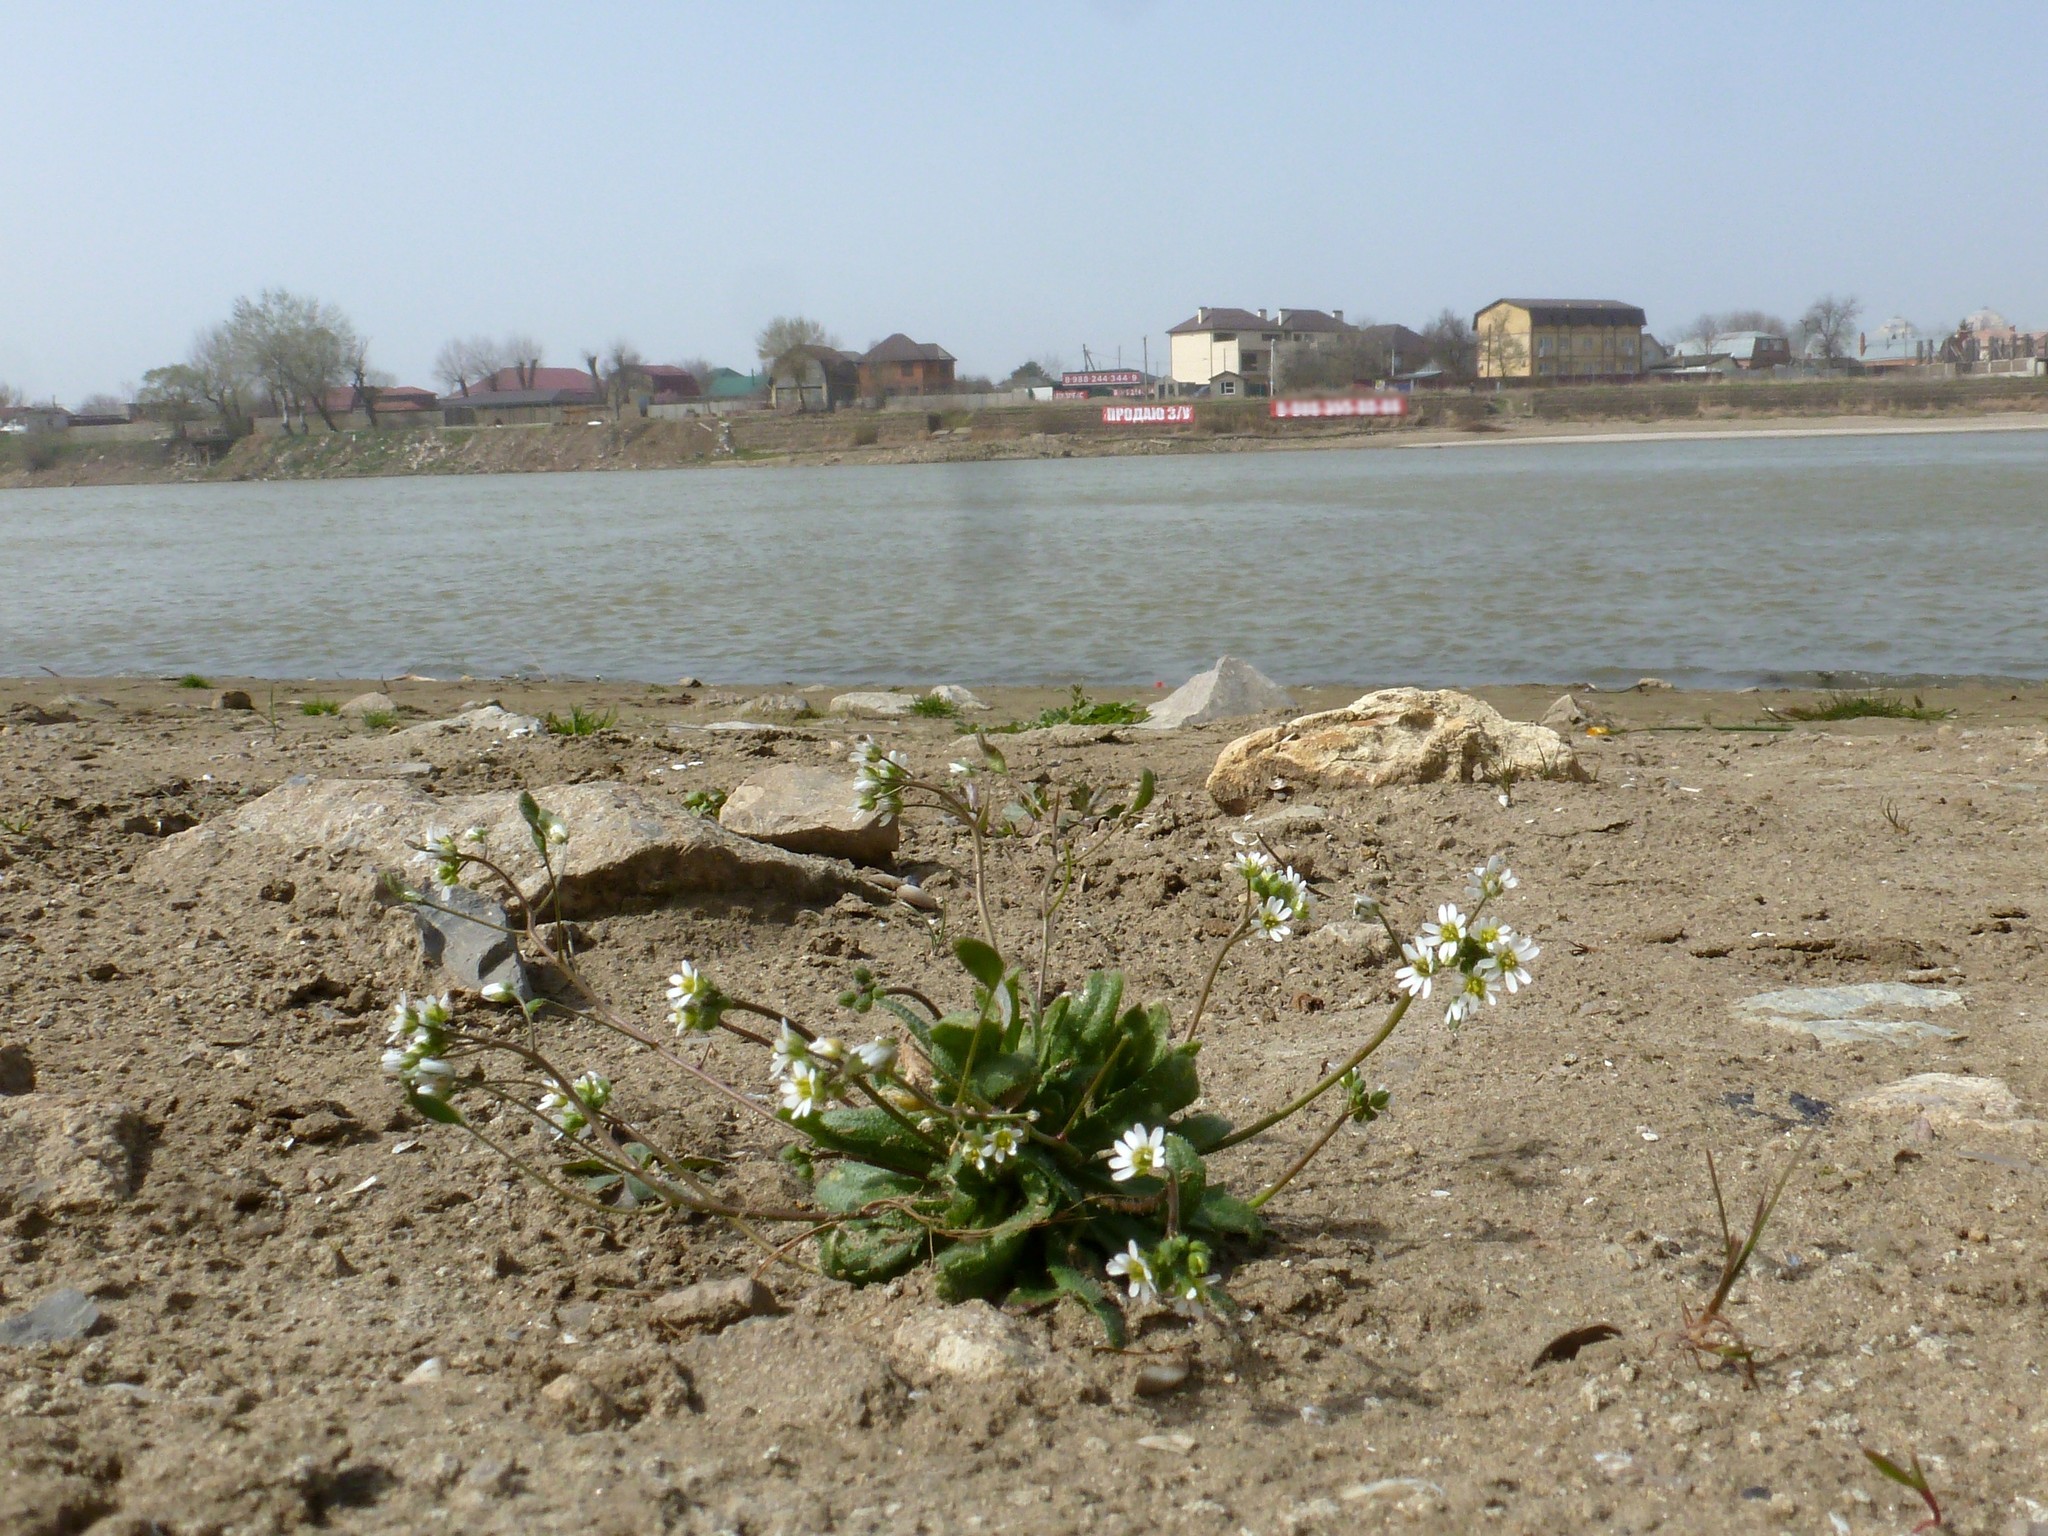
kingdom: Plantae
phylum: Tracheophyta
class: Magnoliopsida
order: Brassicales
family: Brassicaceae
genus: Draba
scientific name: Draba verna
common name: Spring draba
